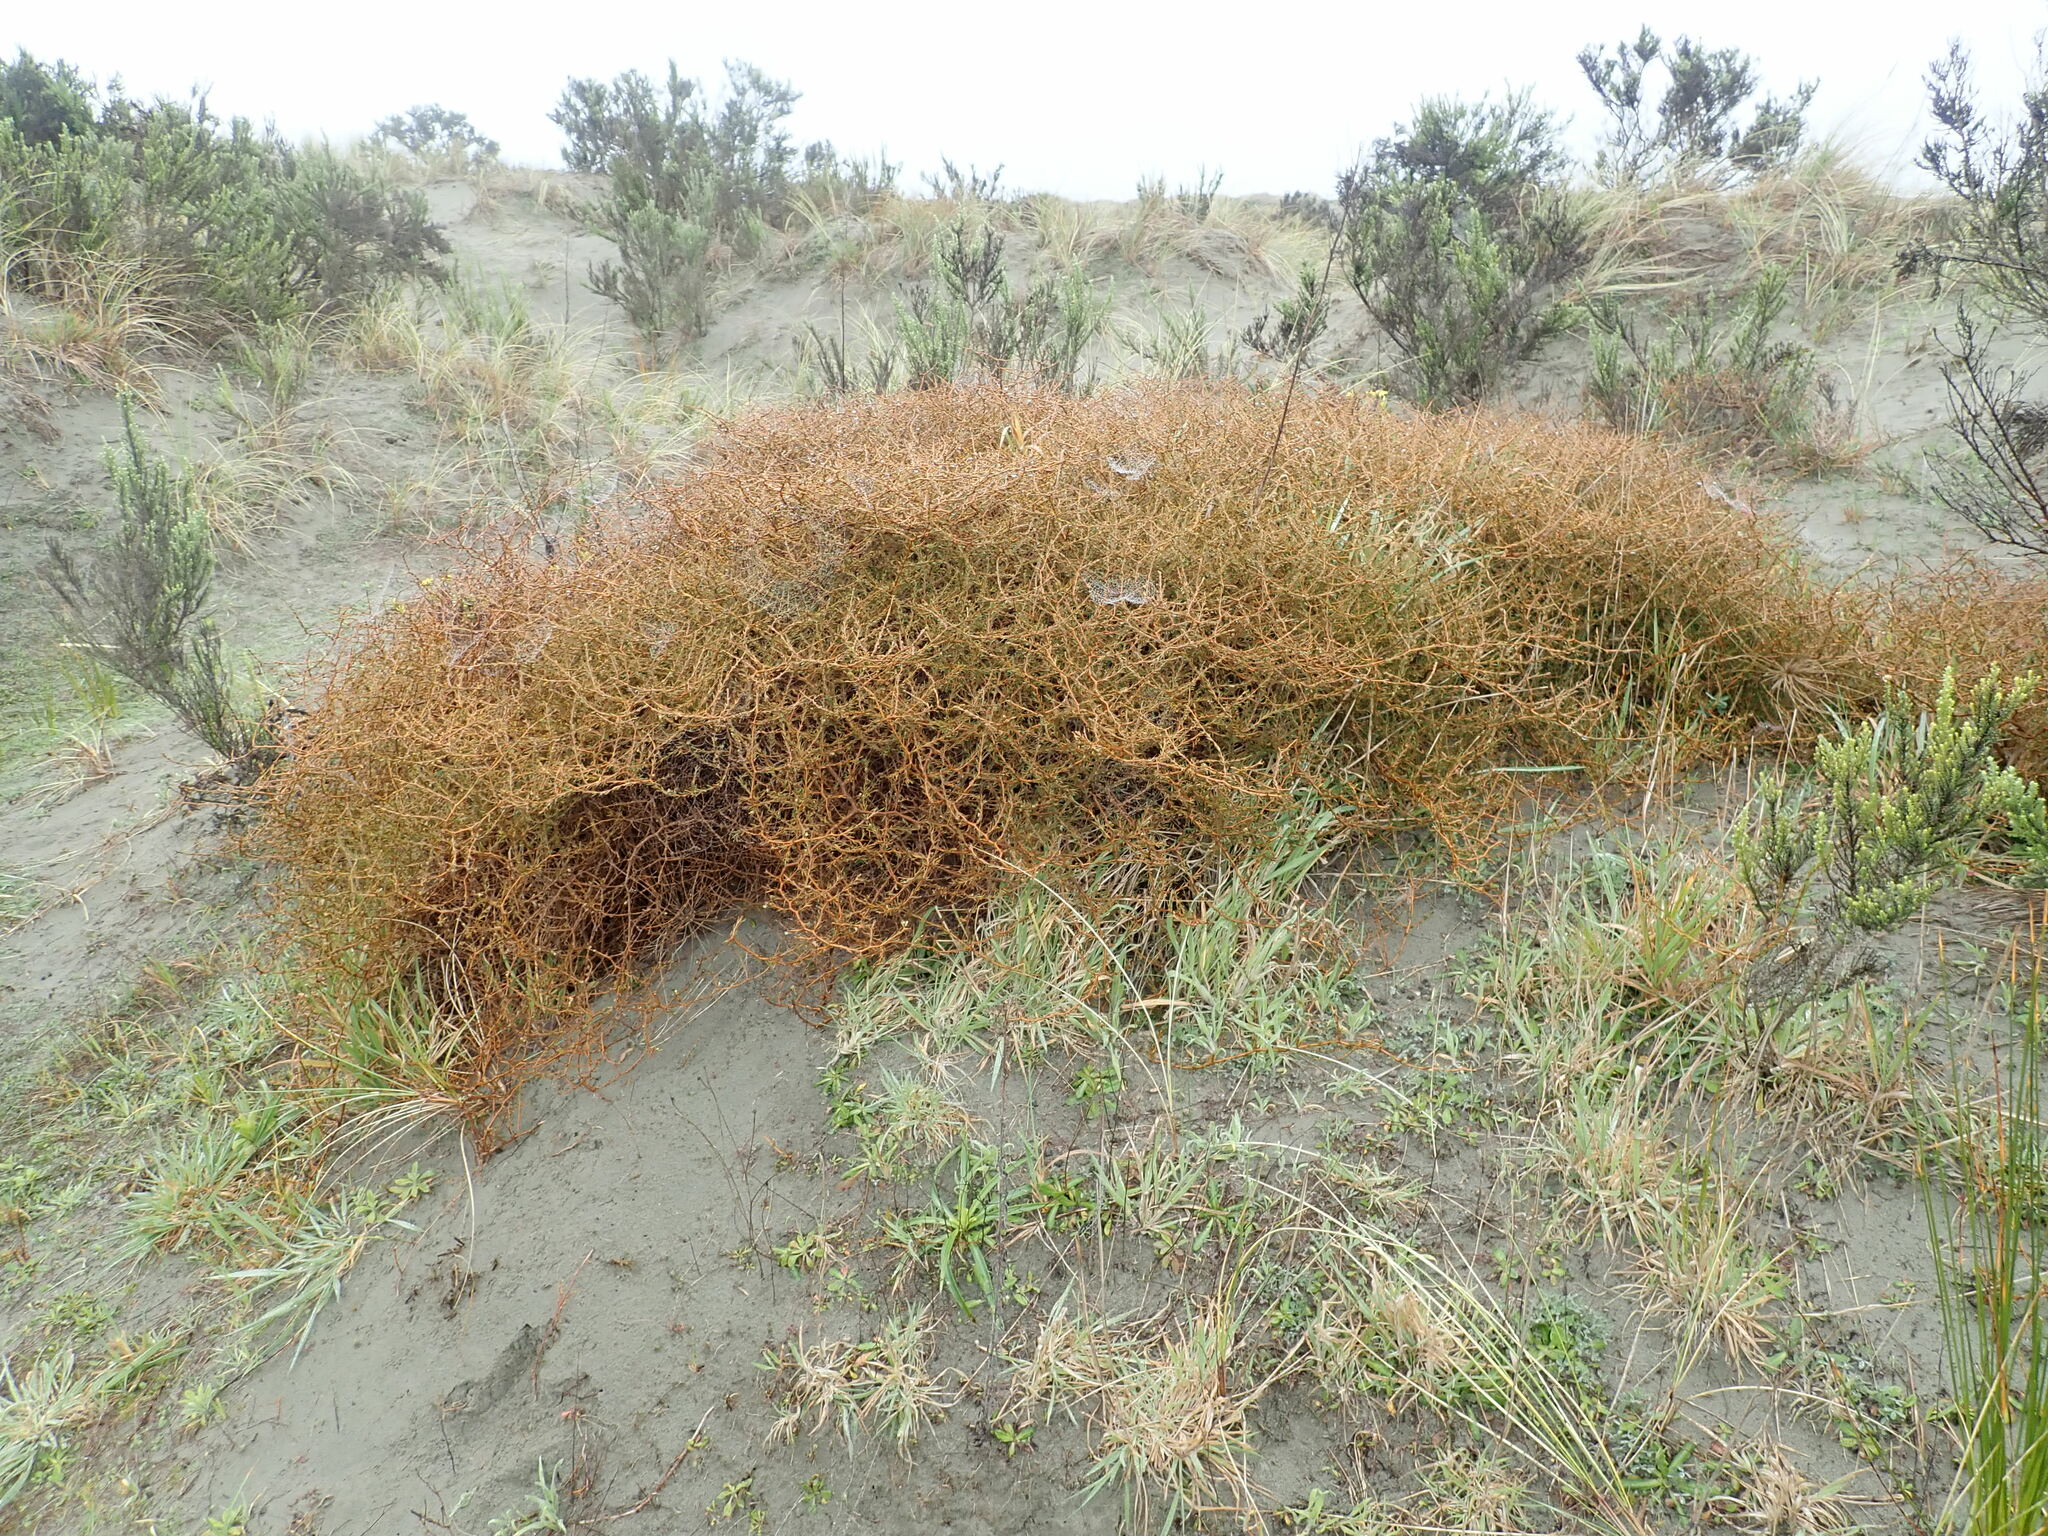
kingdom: Plantae
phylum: Tracheophyta
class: Magnoliopsida
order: Gentianales
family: Rubiaceae
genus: Coprosma
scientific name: Coprosma acerosa
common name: Sand coprosma
